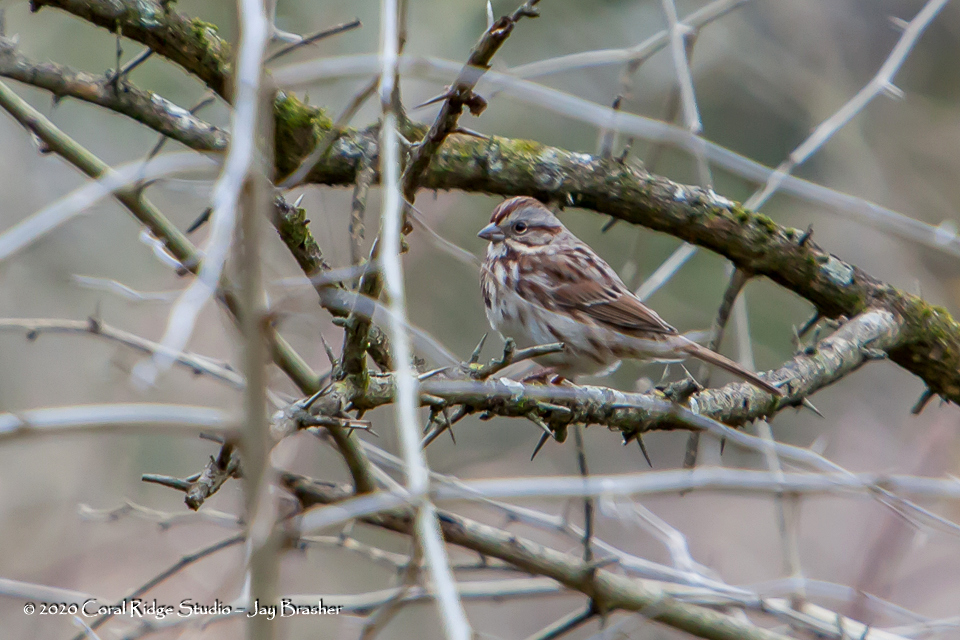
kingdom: Animalia
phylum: Chordata
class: Aves
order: Passeriformes
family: Passerellidae
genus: Melospiza
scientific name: Melospiza melodia
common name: Song sparrow
